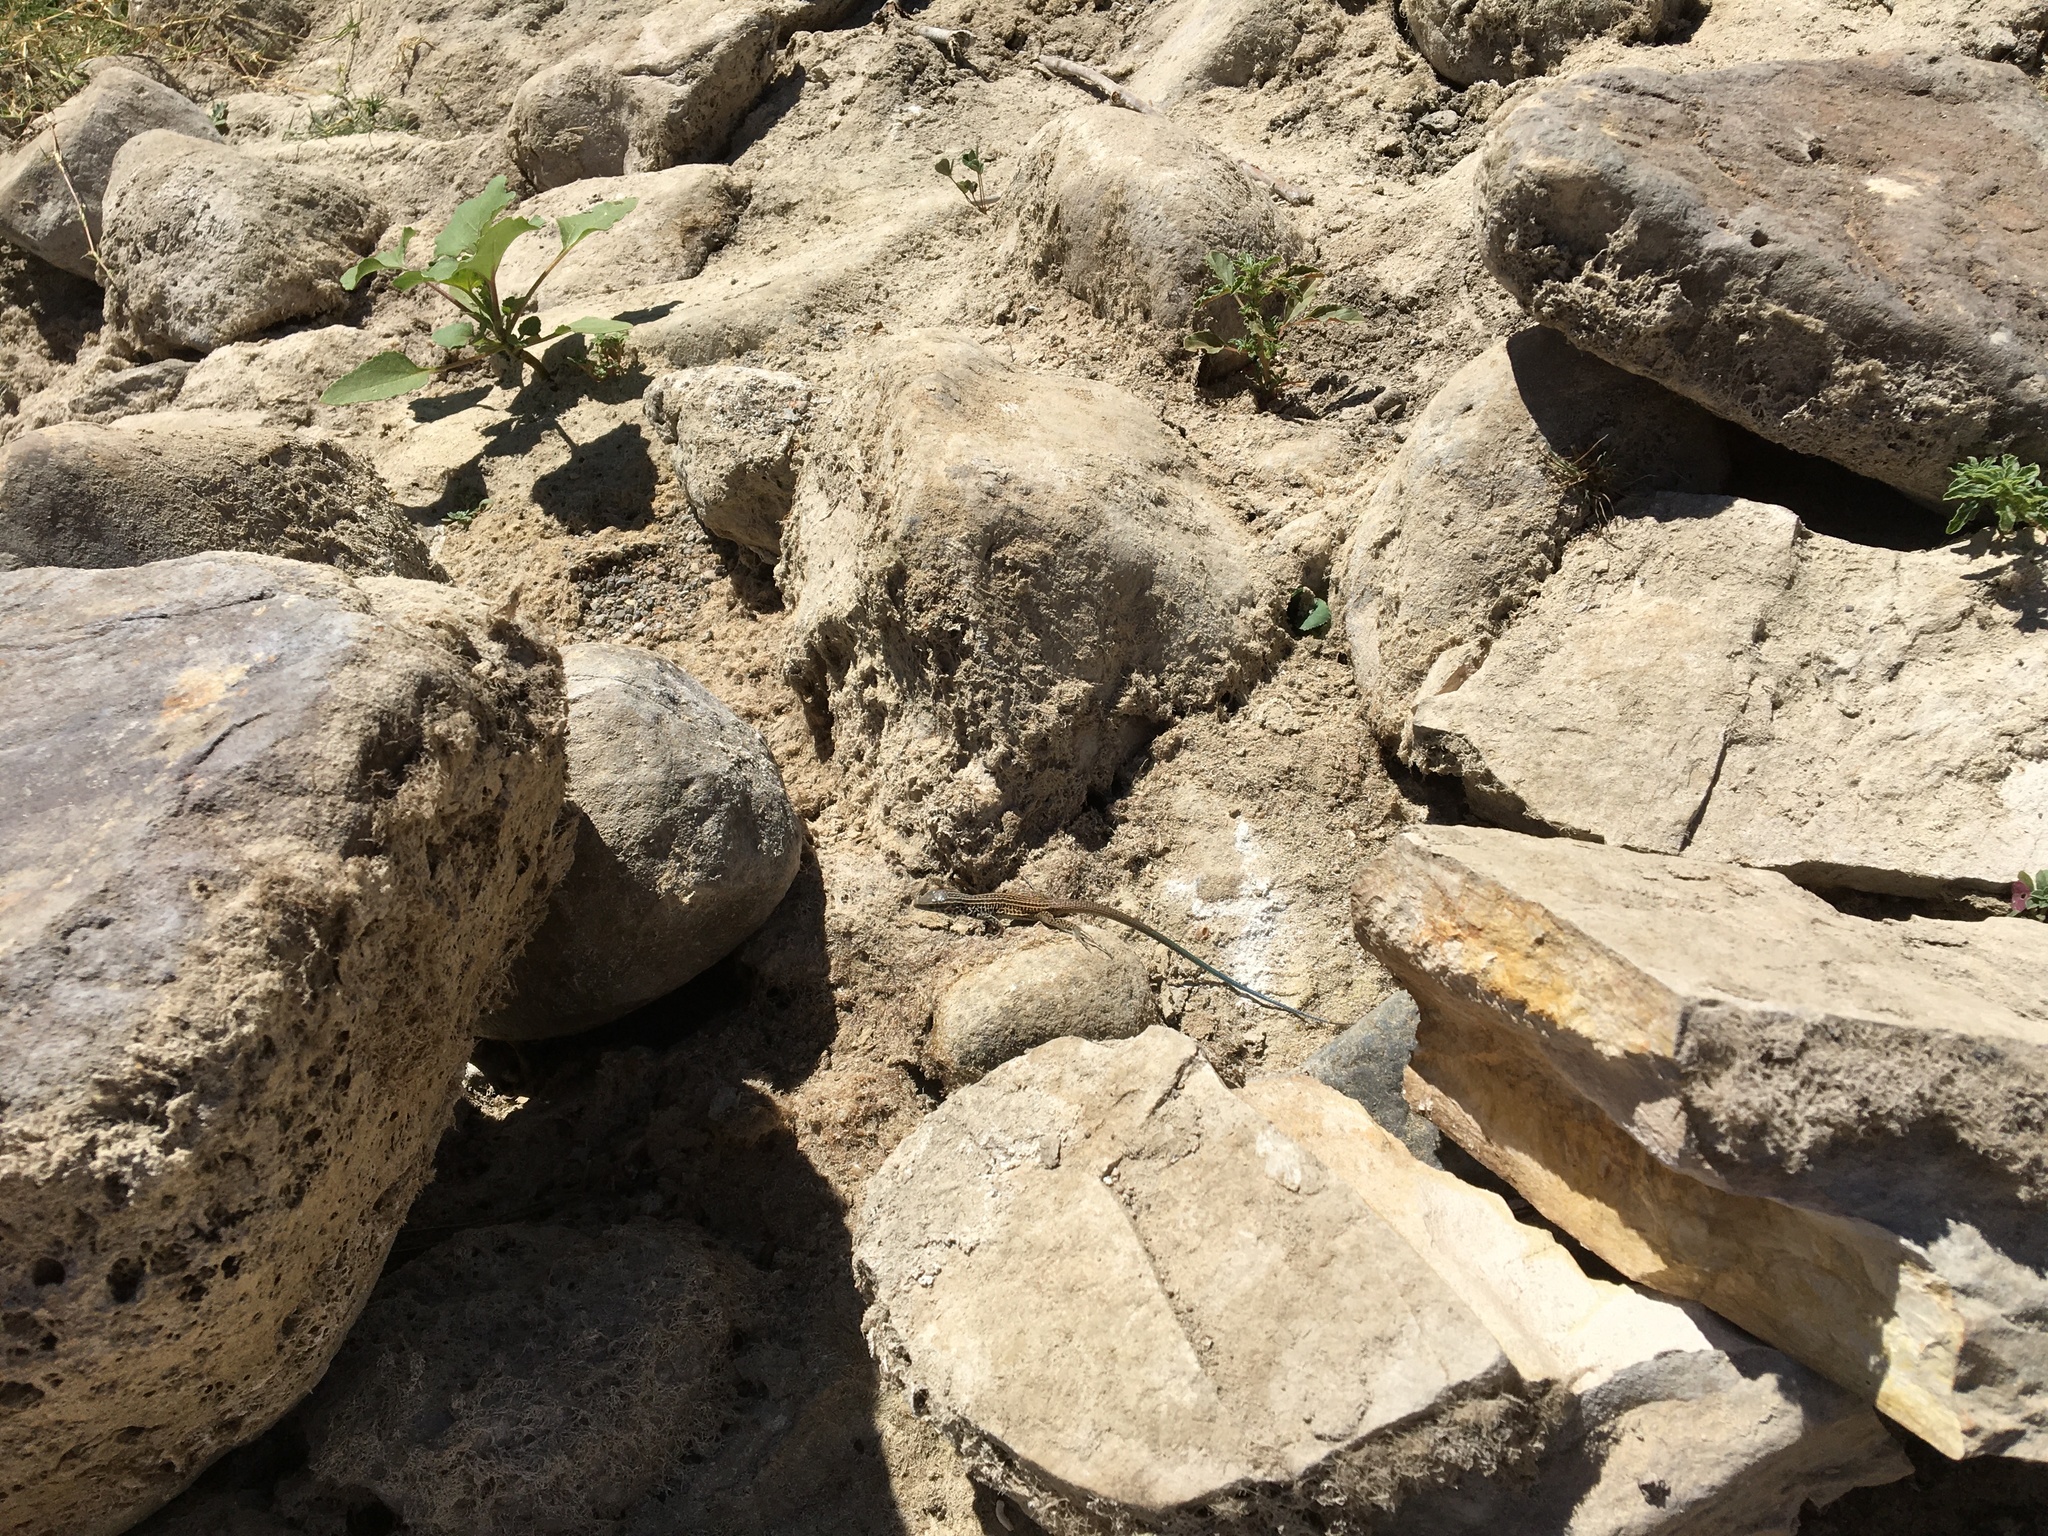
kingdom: Animalia
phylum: Chordata
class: Squamata
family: Teiidae
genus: Aspidoscelis
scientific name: Aspidoscelis tigris
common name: Tiger whiptail
